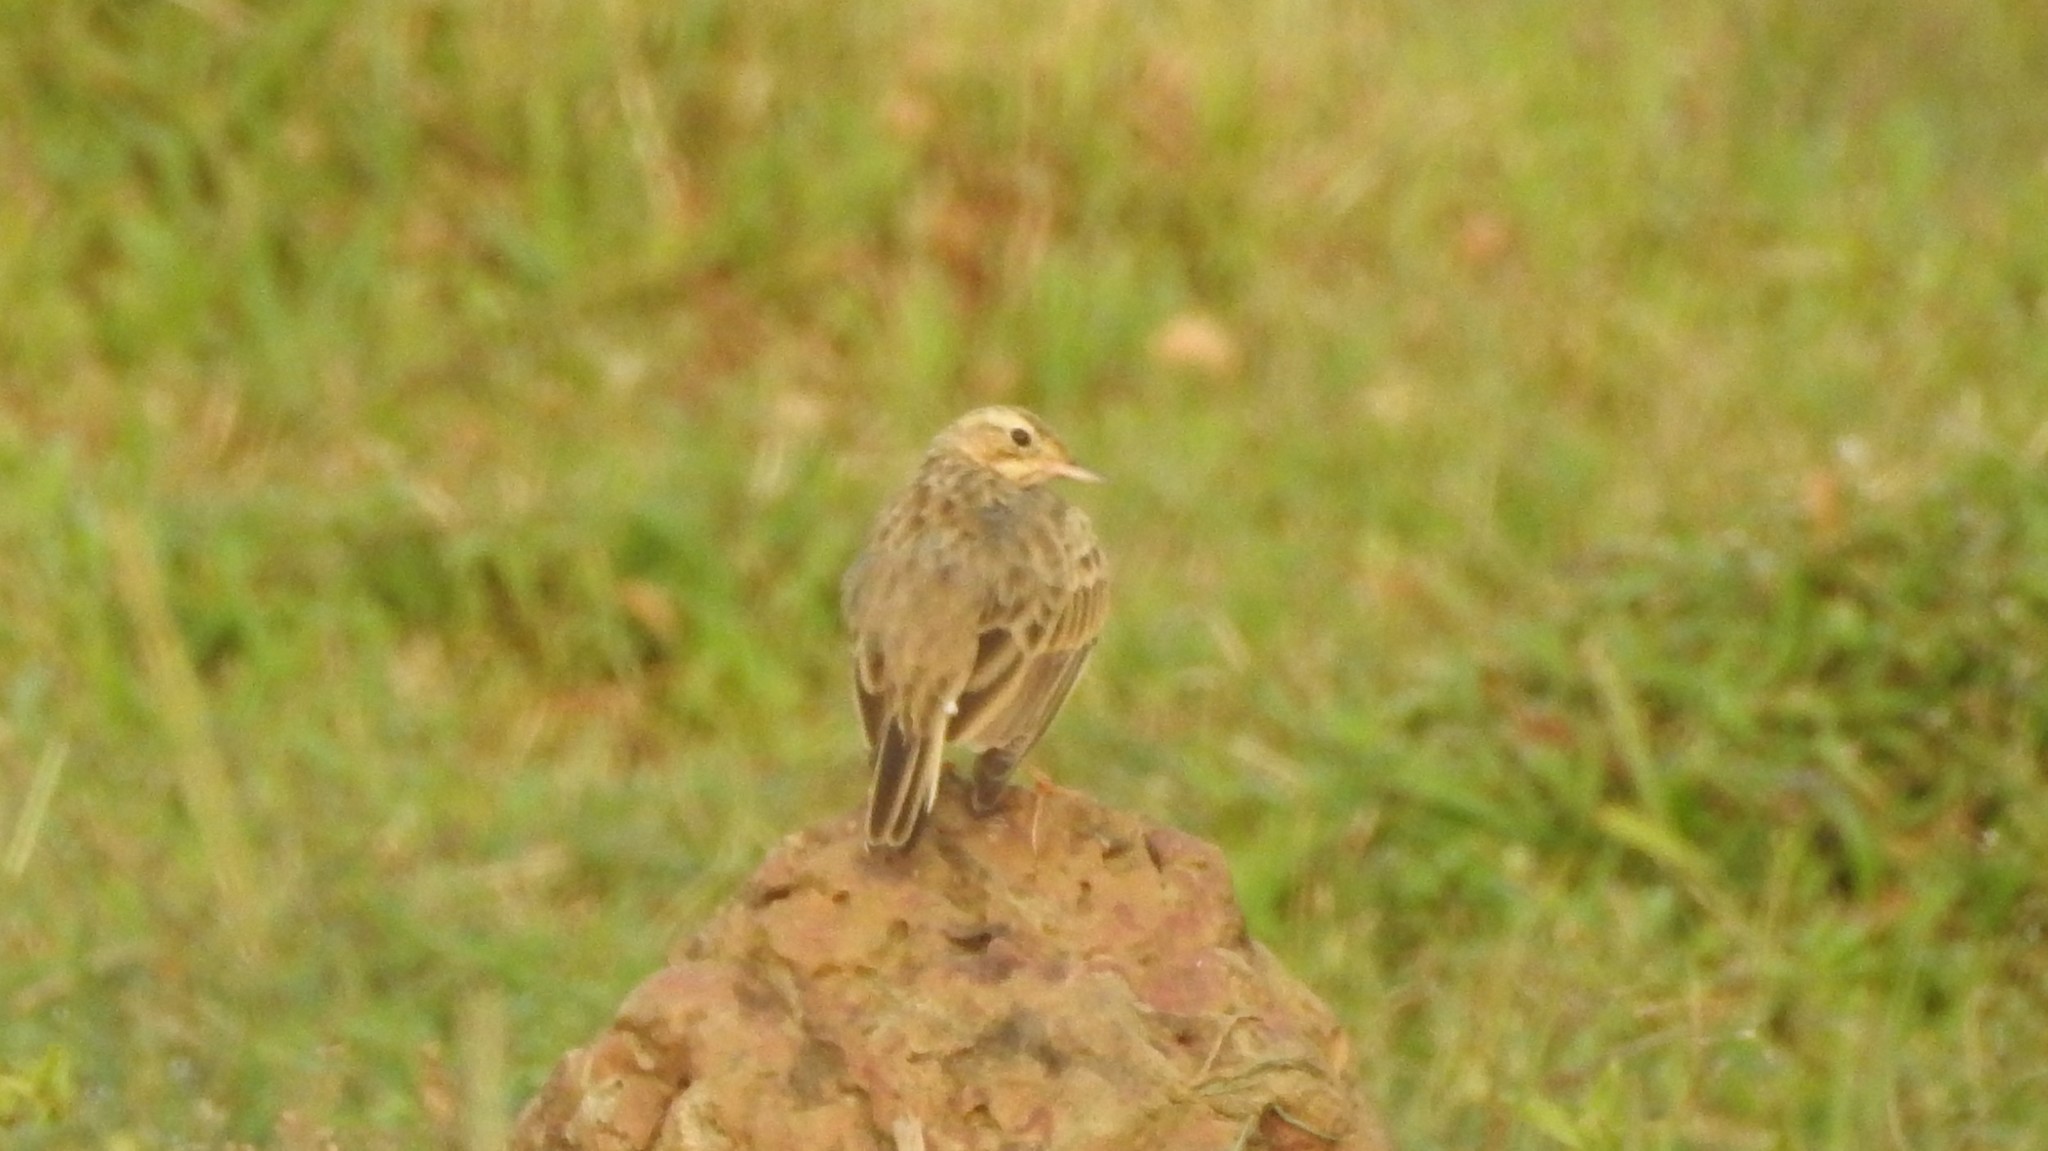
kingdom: Animalia
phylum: Chordata
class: Aves
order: Passeriformes
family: Motacillidae
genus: Anthus
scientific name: Anthus rufulus
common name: Paddyfield pipit
